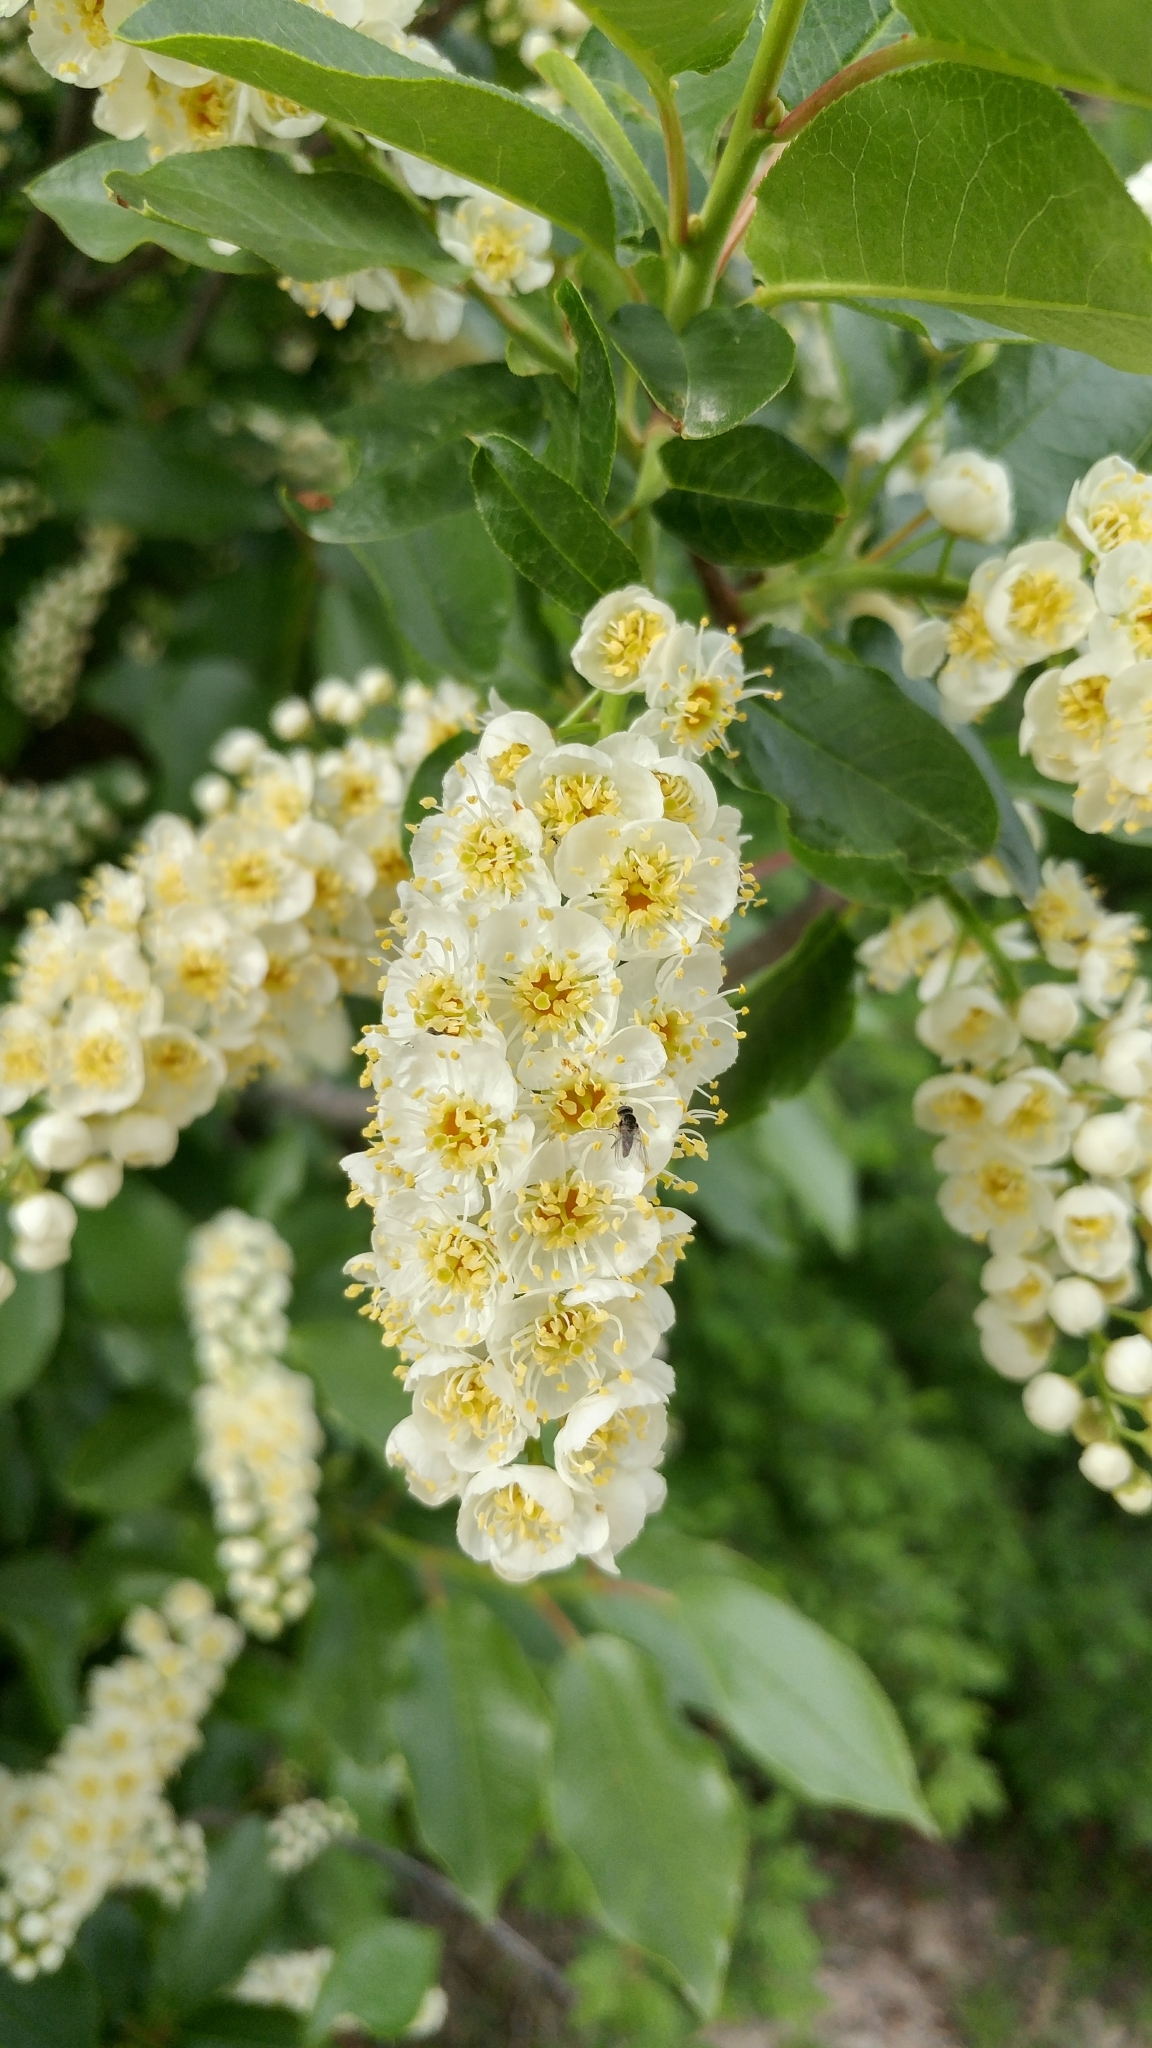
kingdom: Plantae
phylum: Tracheophyta
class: Magnoliopsida
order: Rosales
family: Rosaceae
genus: Prunus
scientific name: Prunus virginiana
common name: Chokecherry
